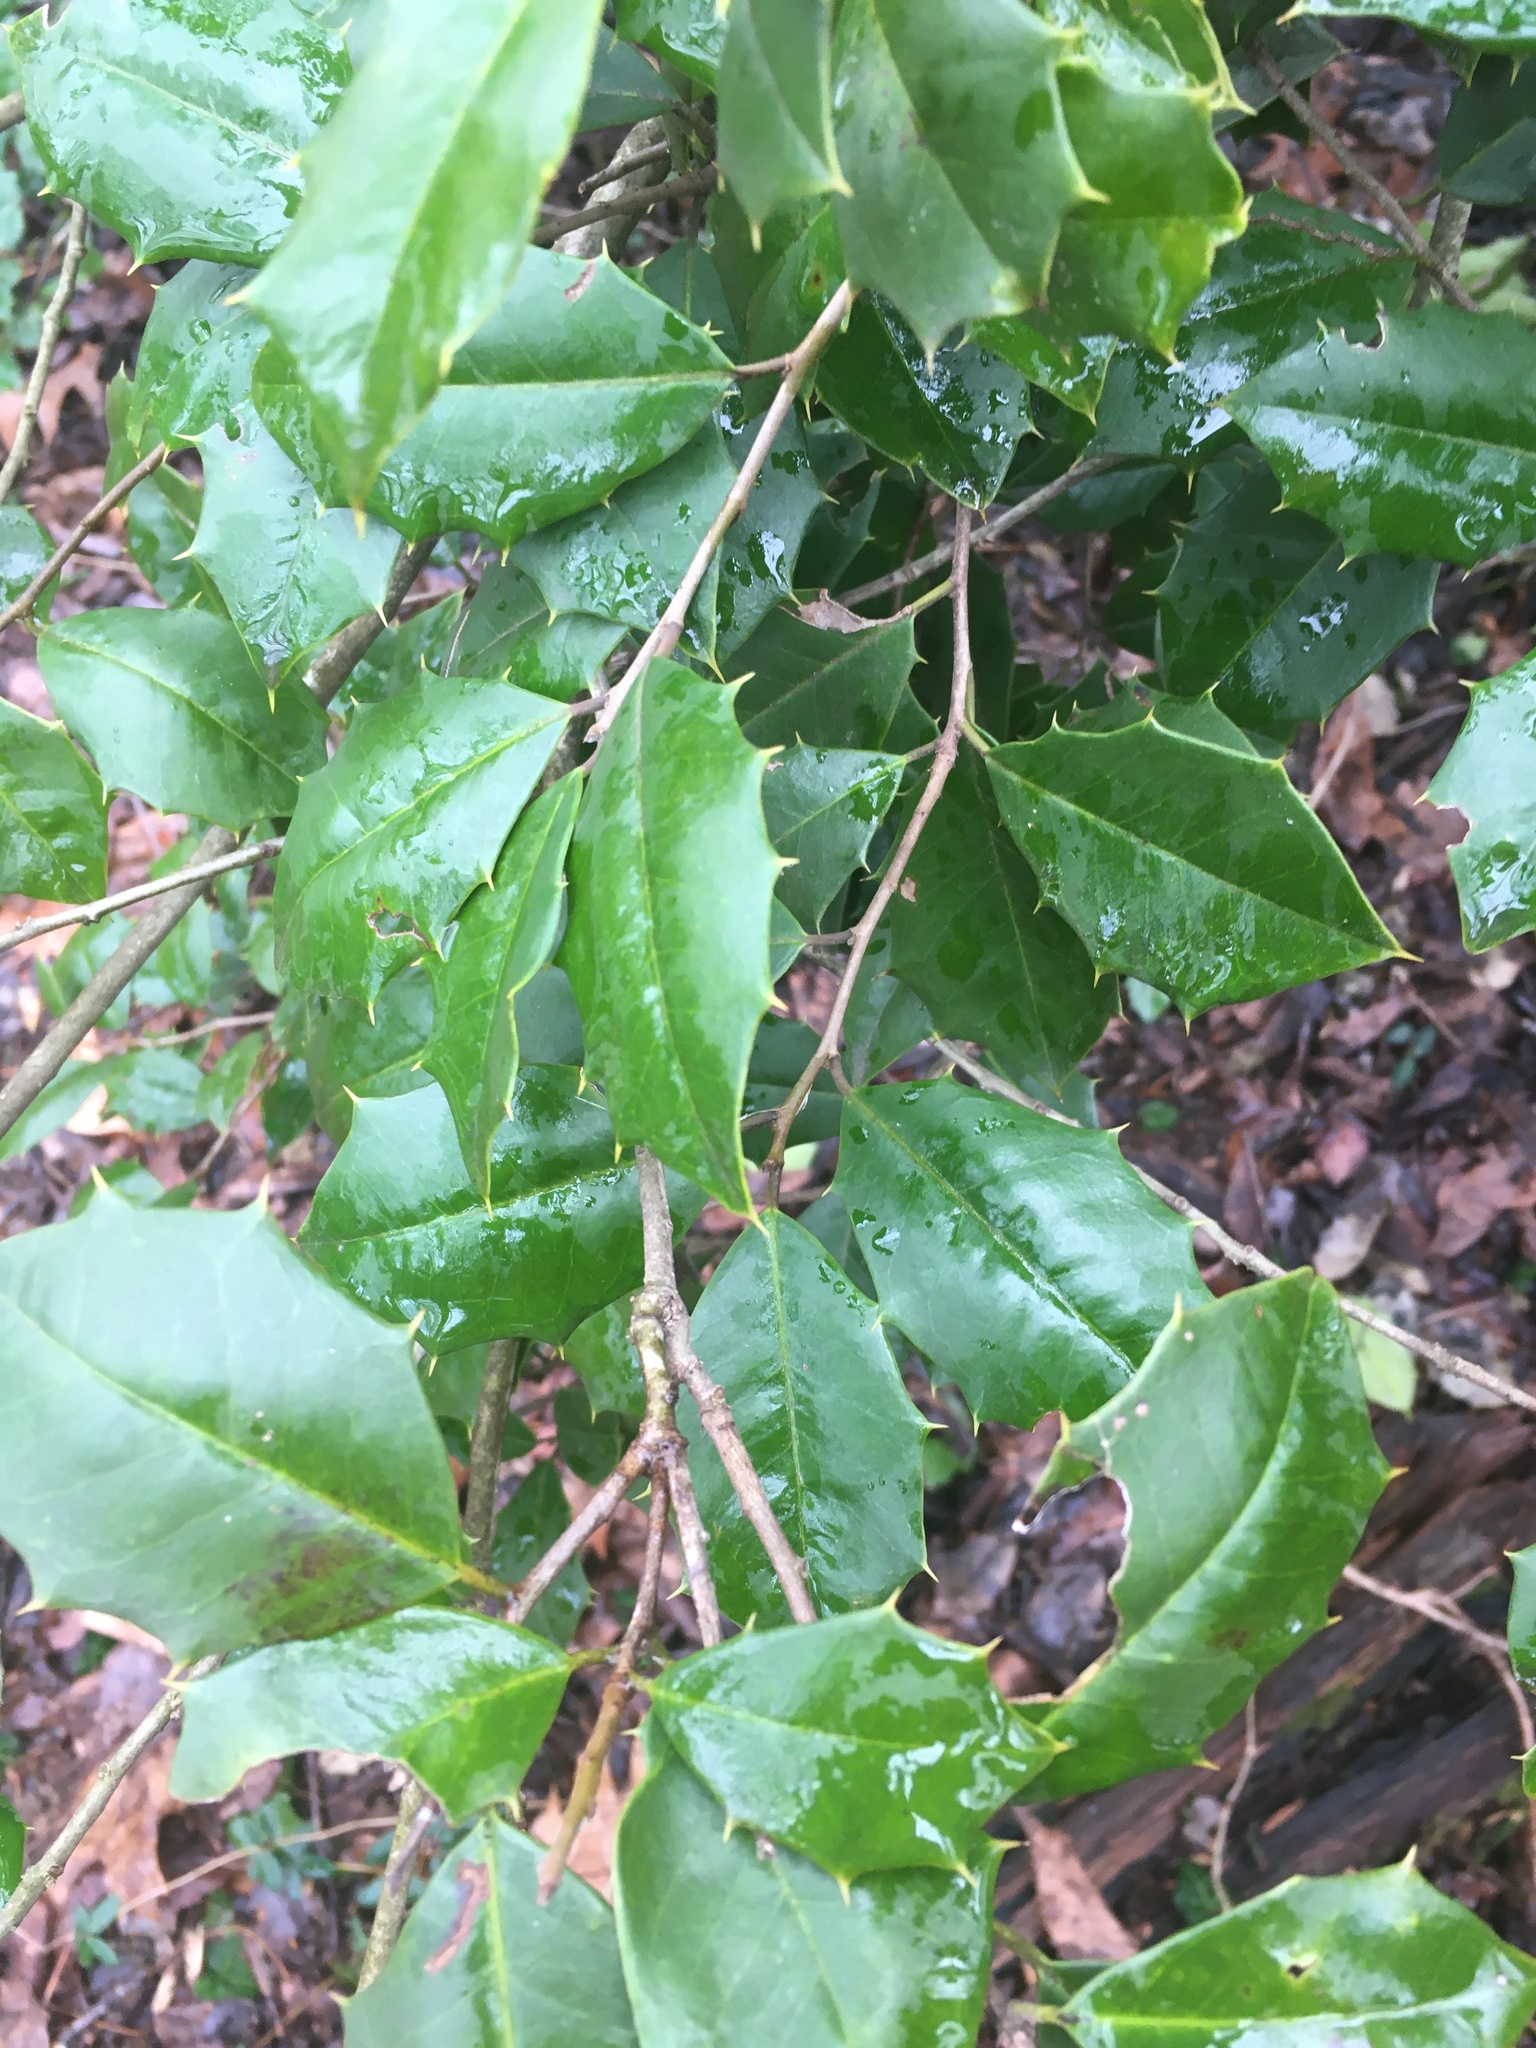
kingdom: Plantae
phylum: Tracheophyta
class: Magnoliopsida
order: Aquifoliales
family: Aquifoliaceae
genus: Ilex
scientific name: Ilex opaca
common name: American holly
